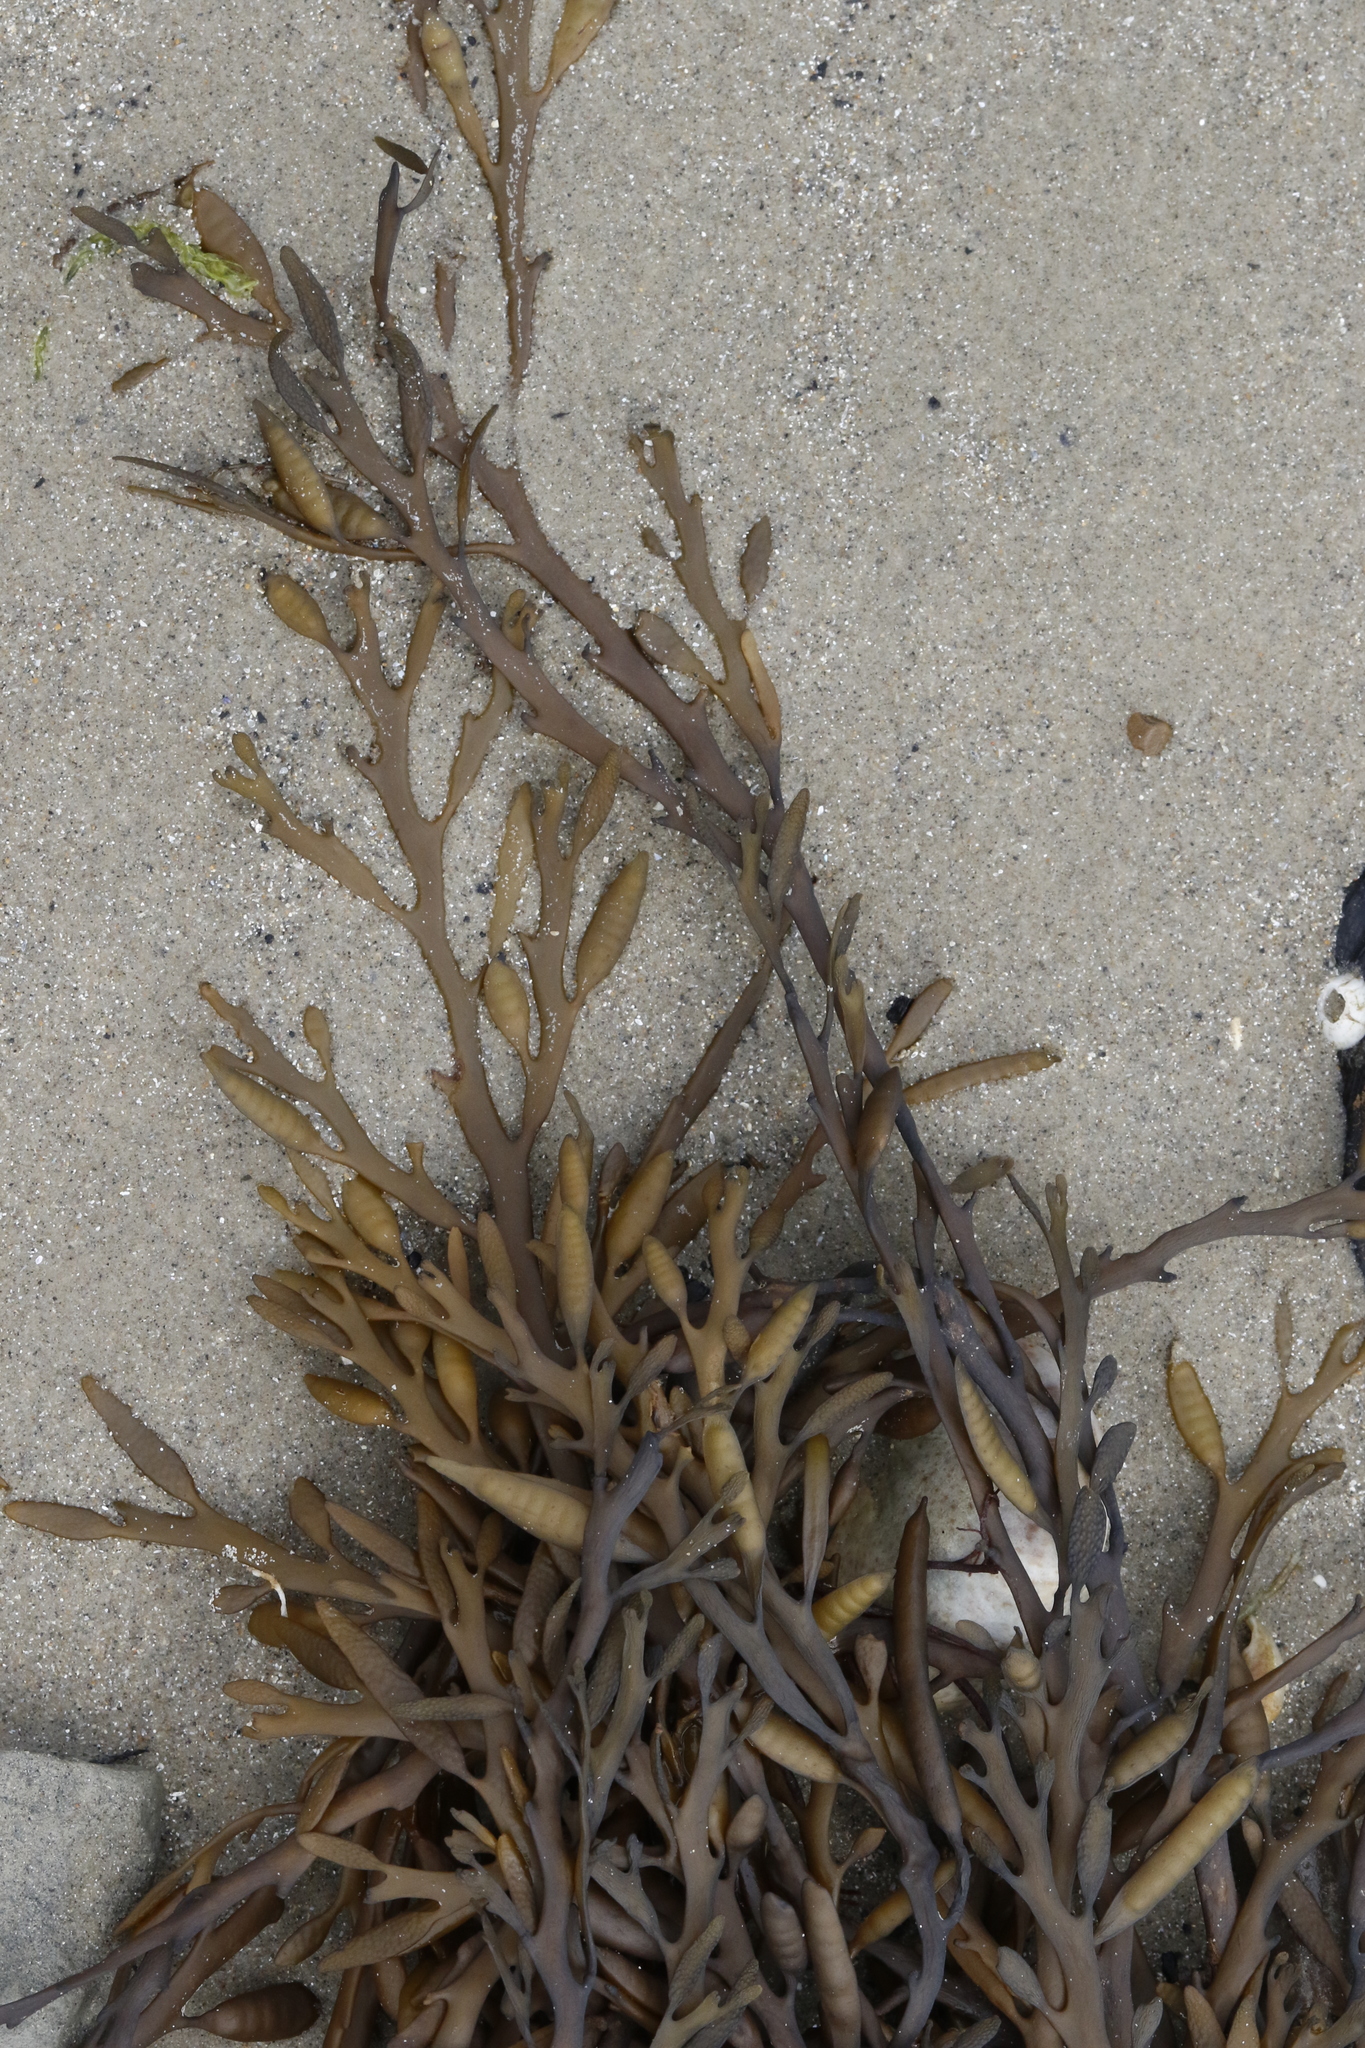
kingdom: Chromista
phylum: Ochrophyta
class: Phaeophyceae
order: Fucales
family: Sargassaceae
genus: Halidrys
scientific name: Halidrys siliquosa
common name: Sea oak
